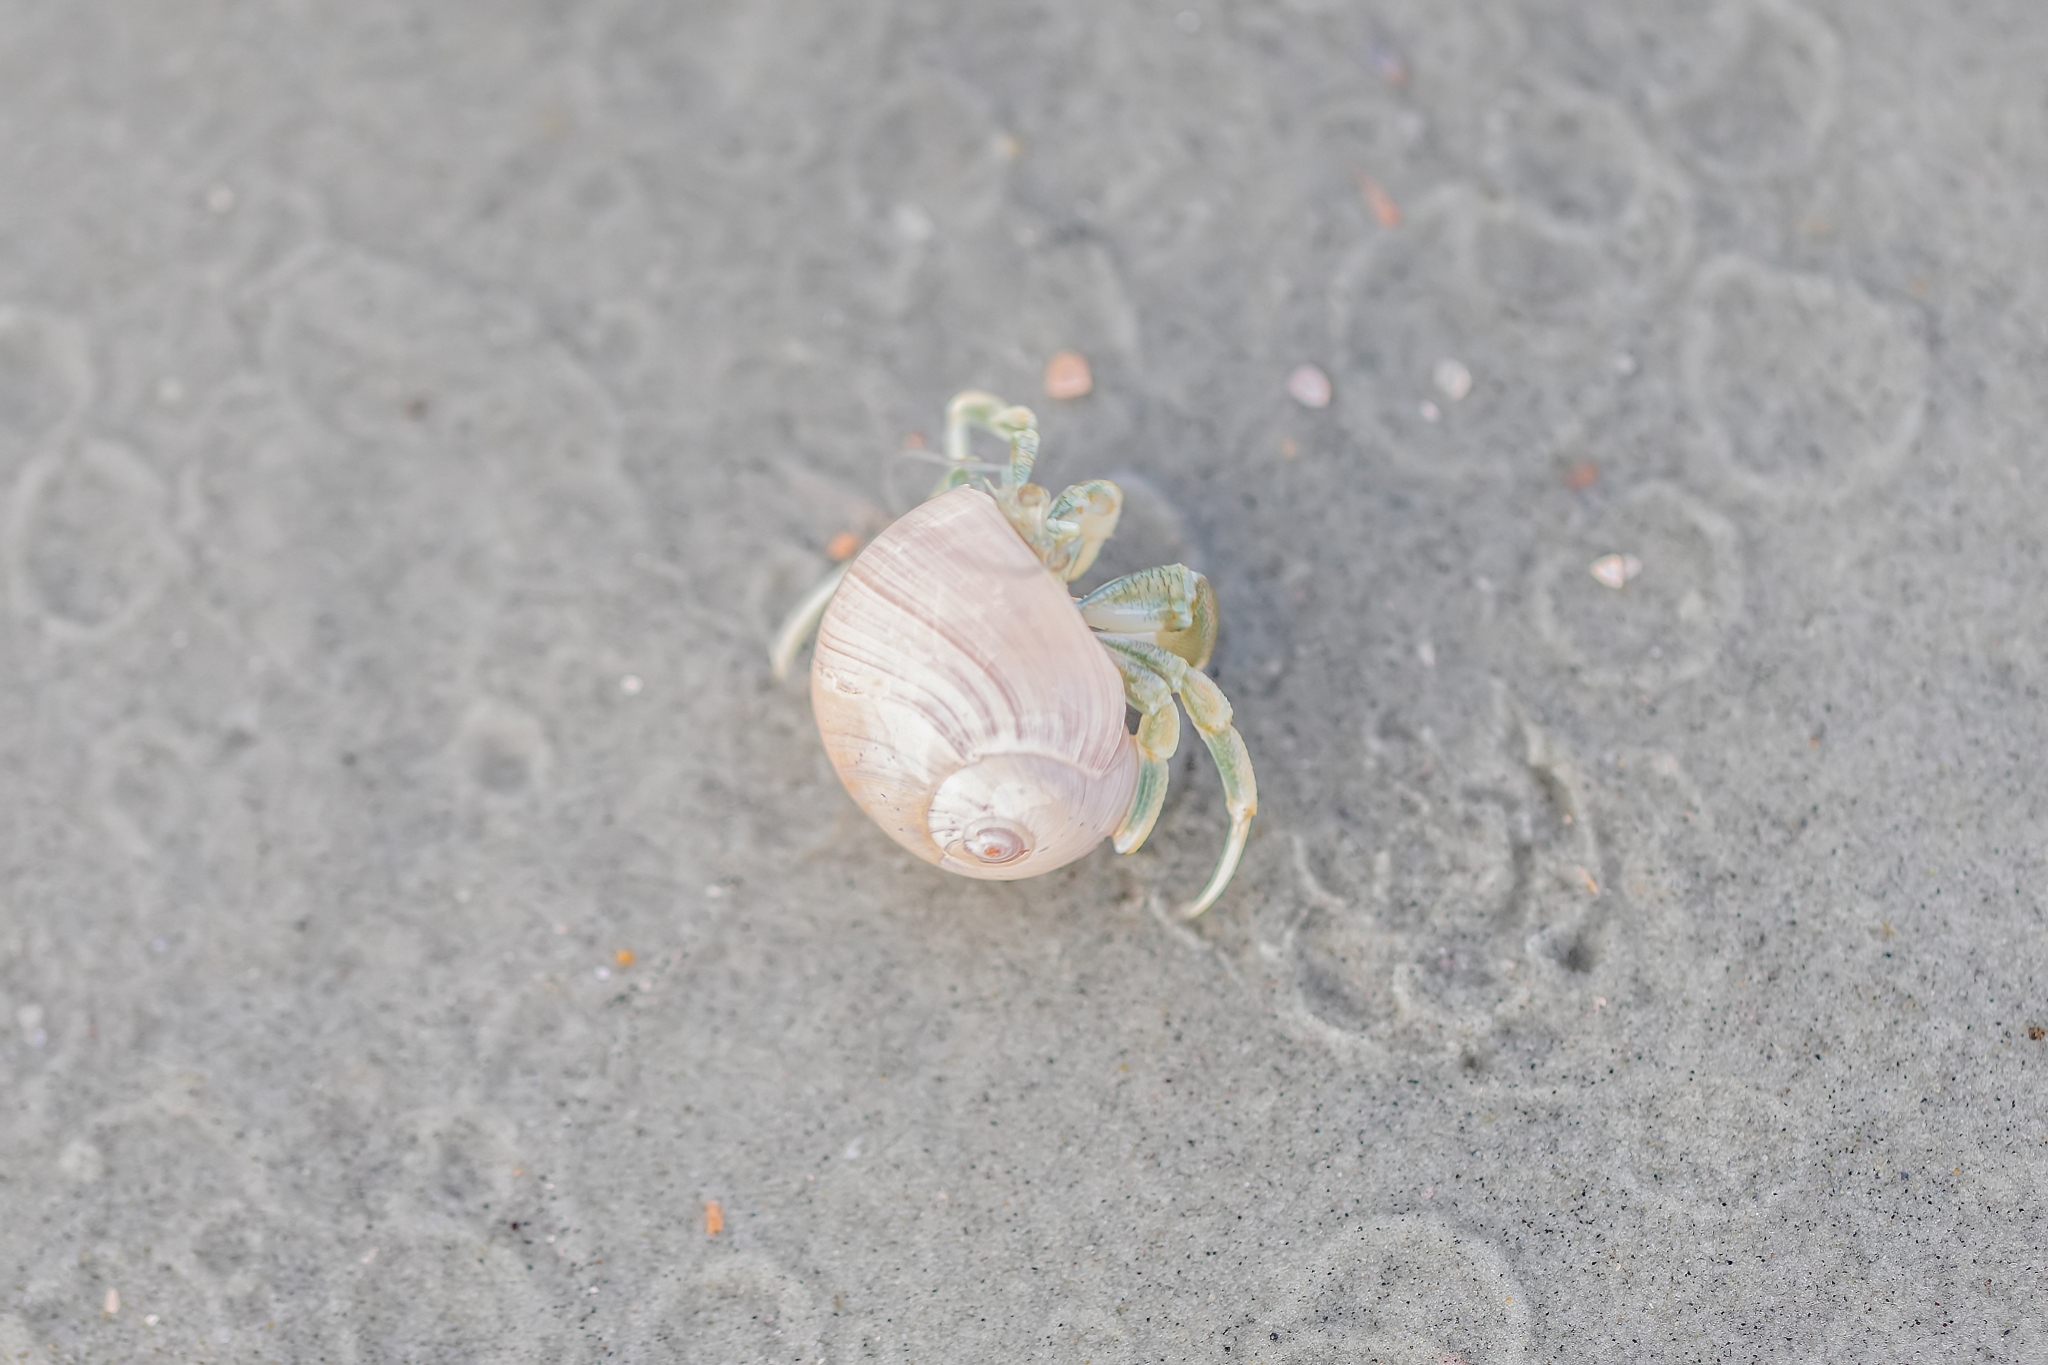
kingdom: Animalia
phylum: Arthropoda
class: Malacostraca
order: Decapoda
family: Paguridae
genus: Pagurus
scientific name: Pagurus longicarpus
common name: Long-armed hermit crab
